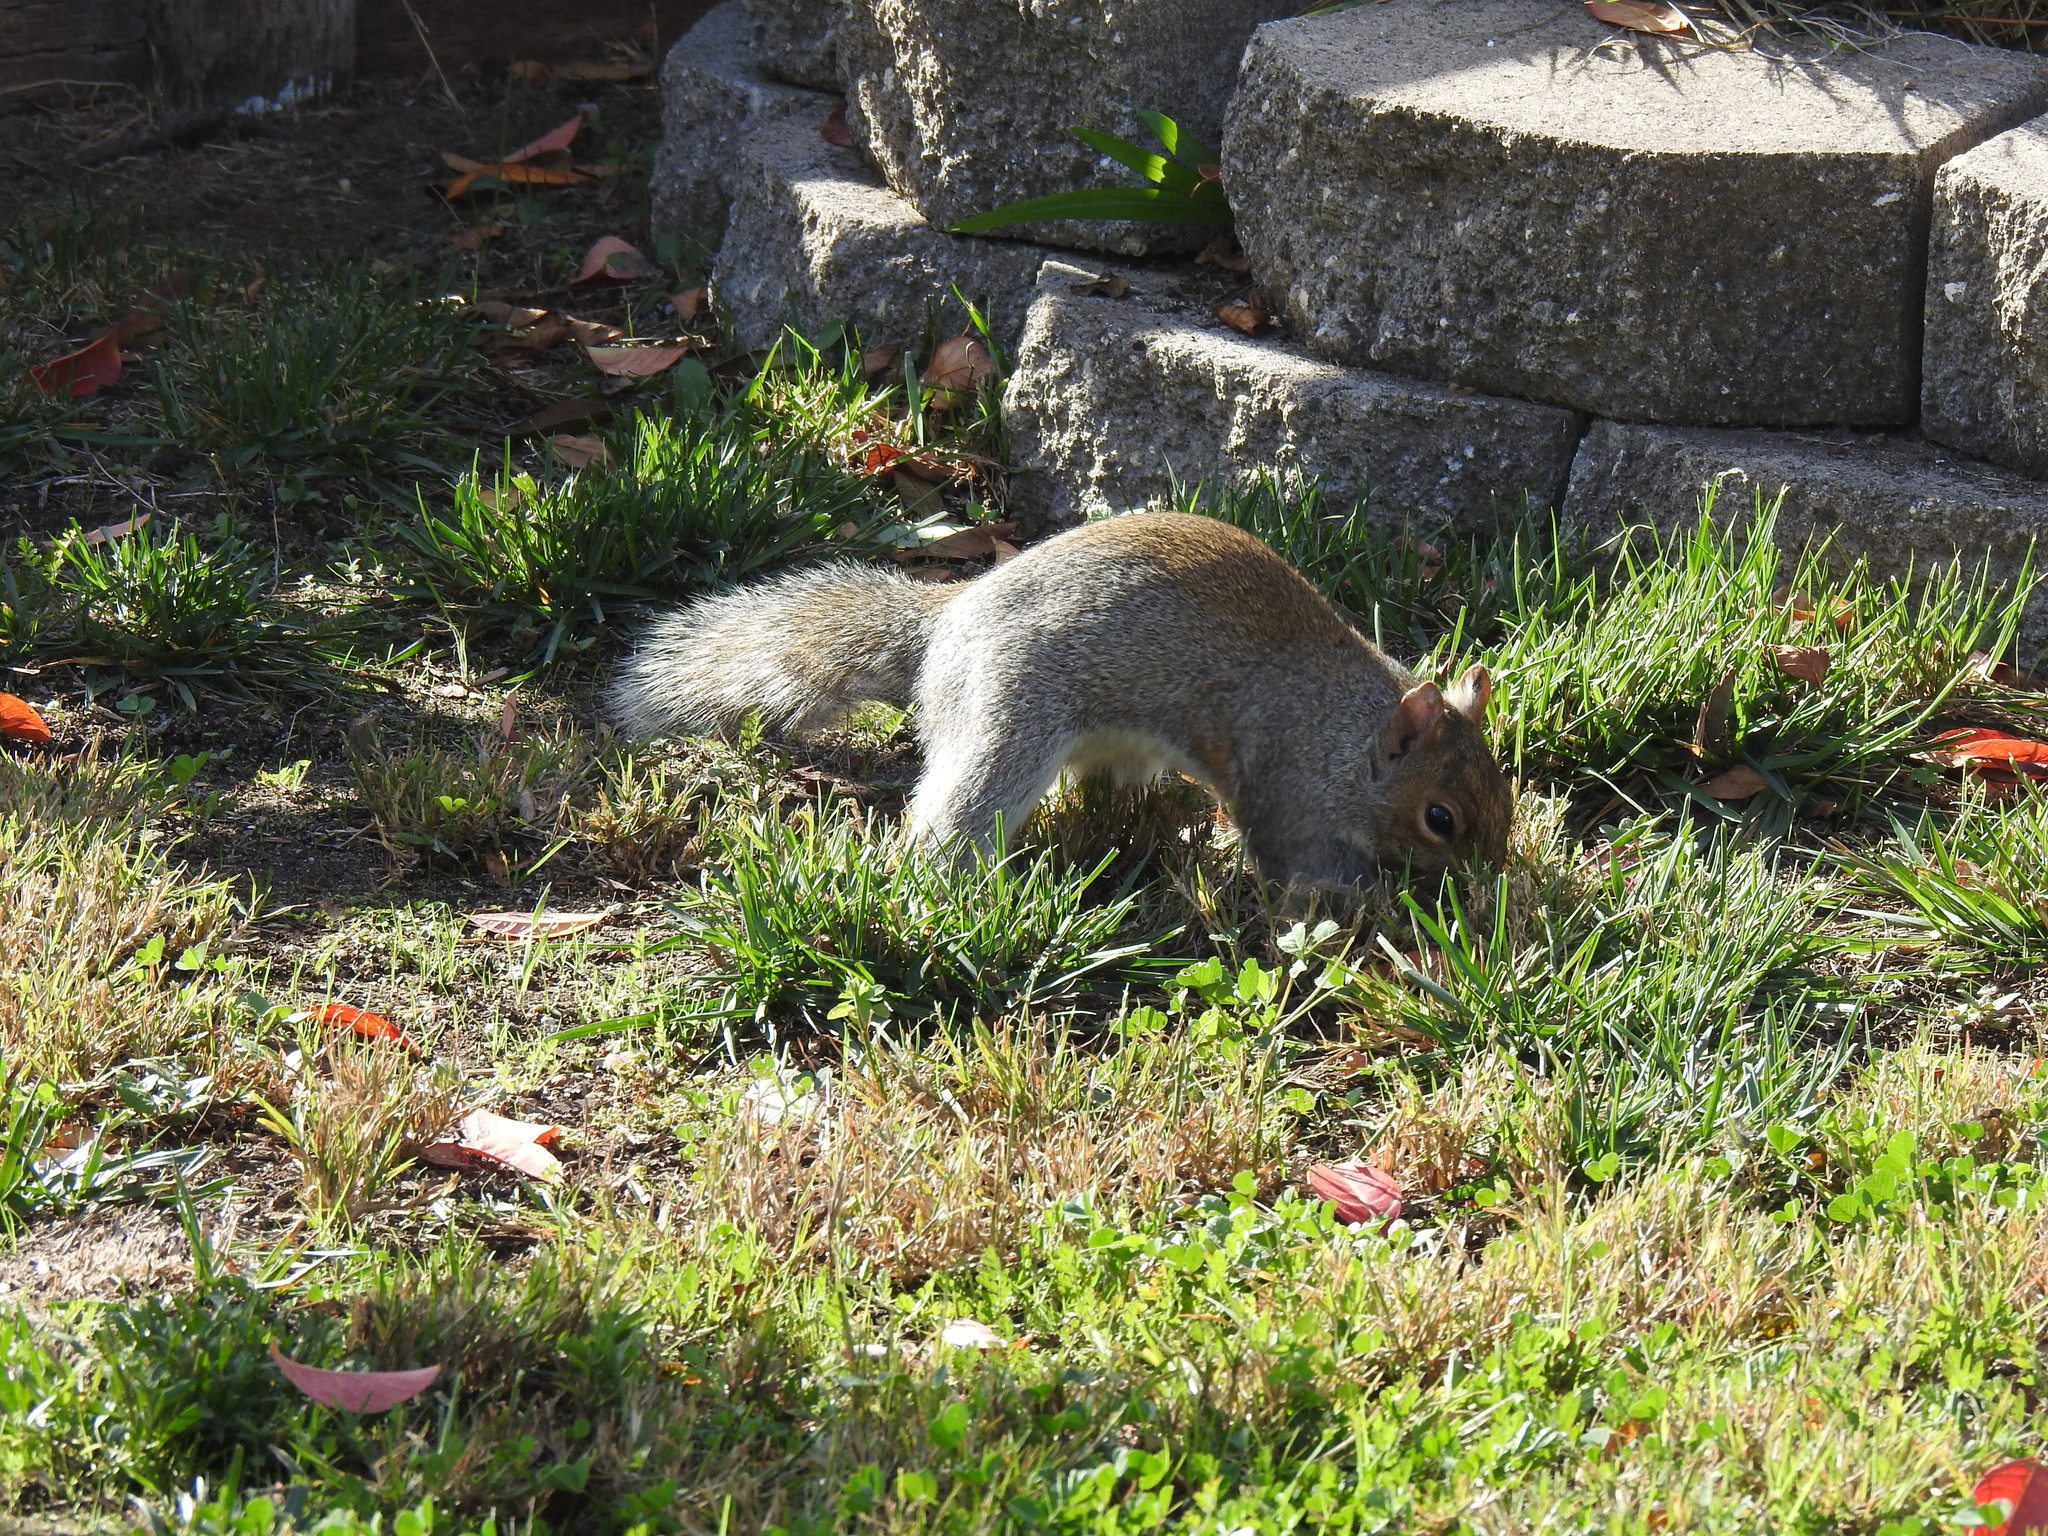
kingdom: Animalia
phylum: Chordata
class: Mammalia
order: Rodentia
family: Sciuridae
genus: Sciurus
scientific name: Sciurus carolinensis
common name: Eastern gray squirrel
